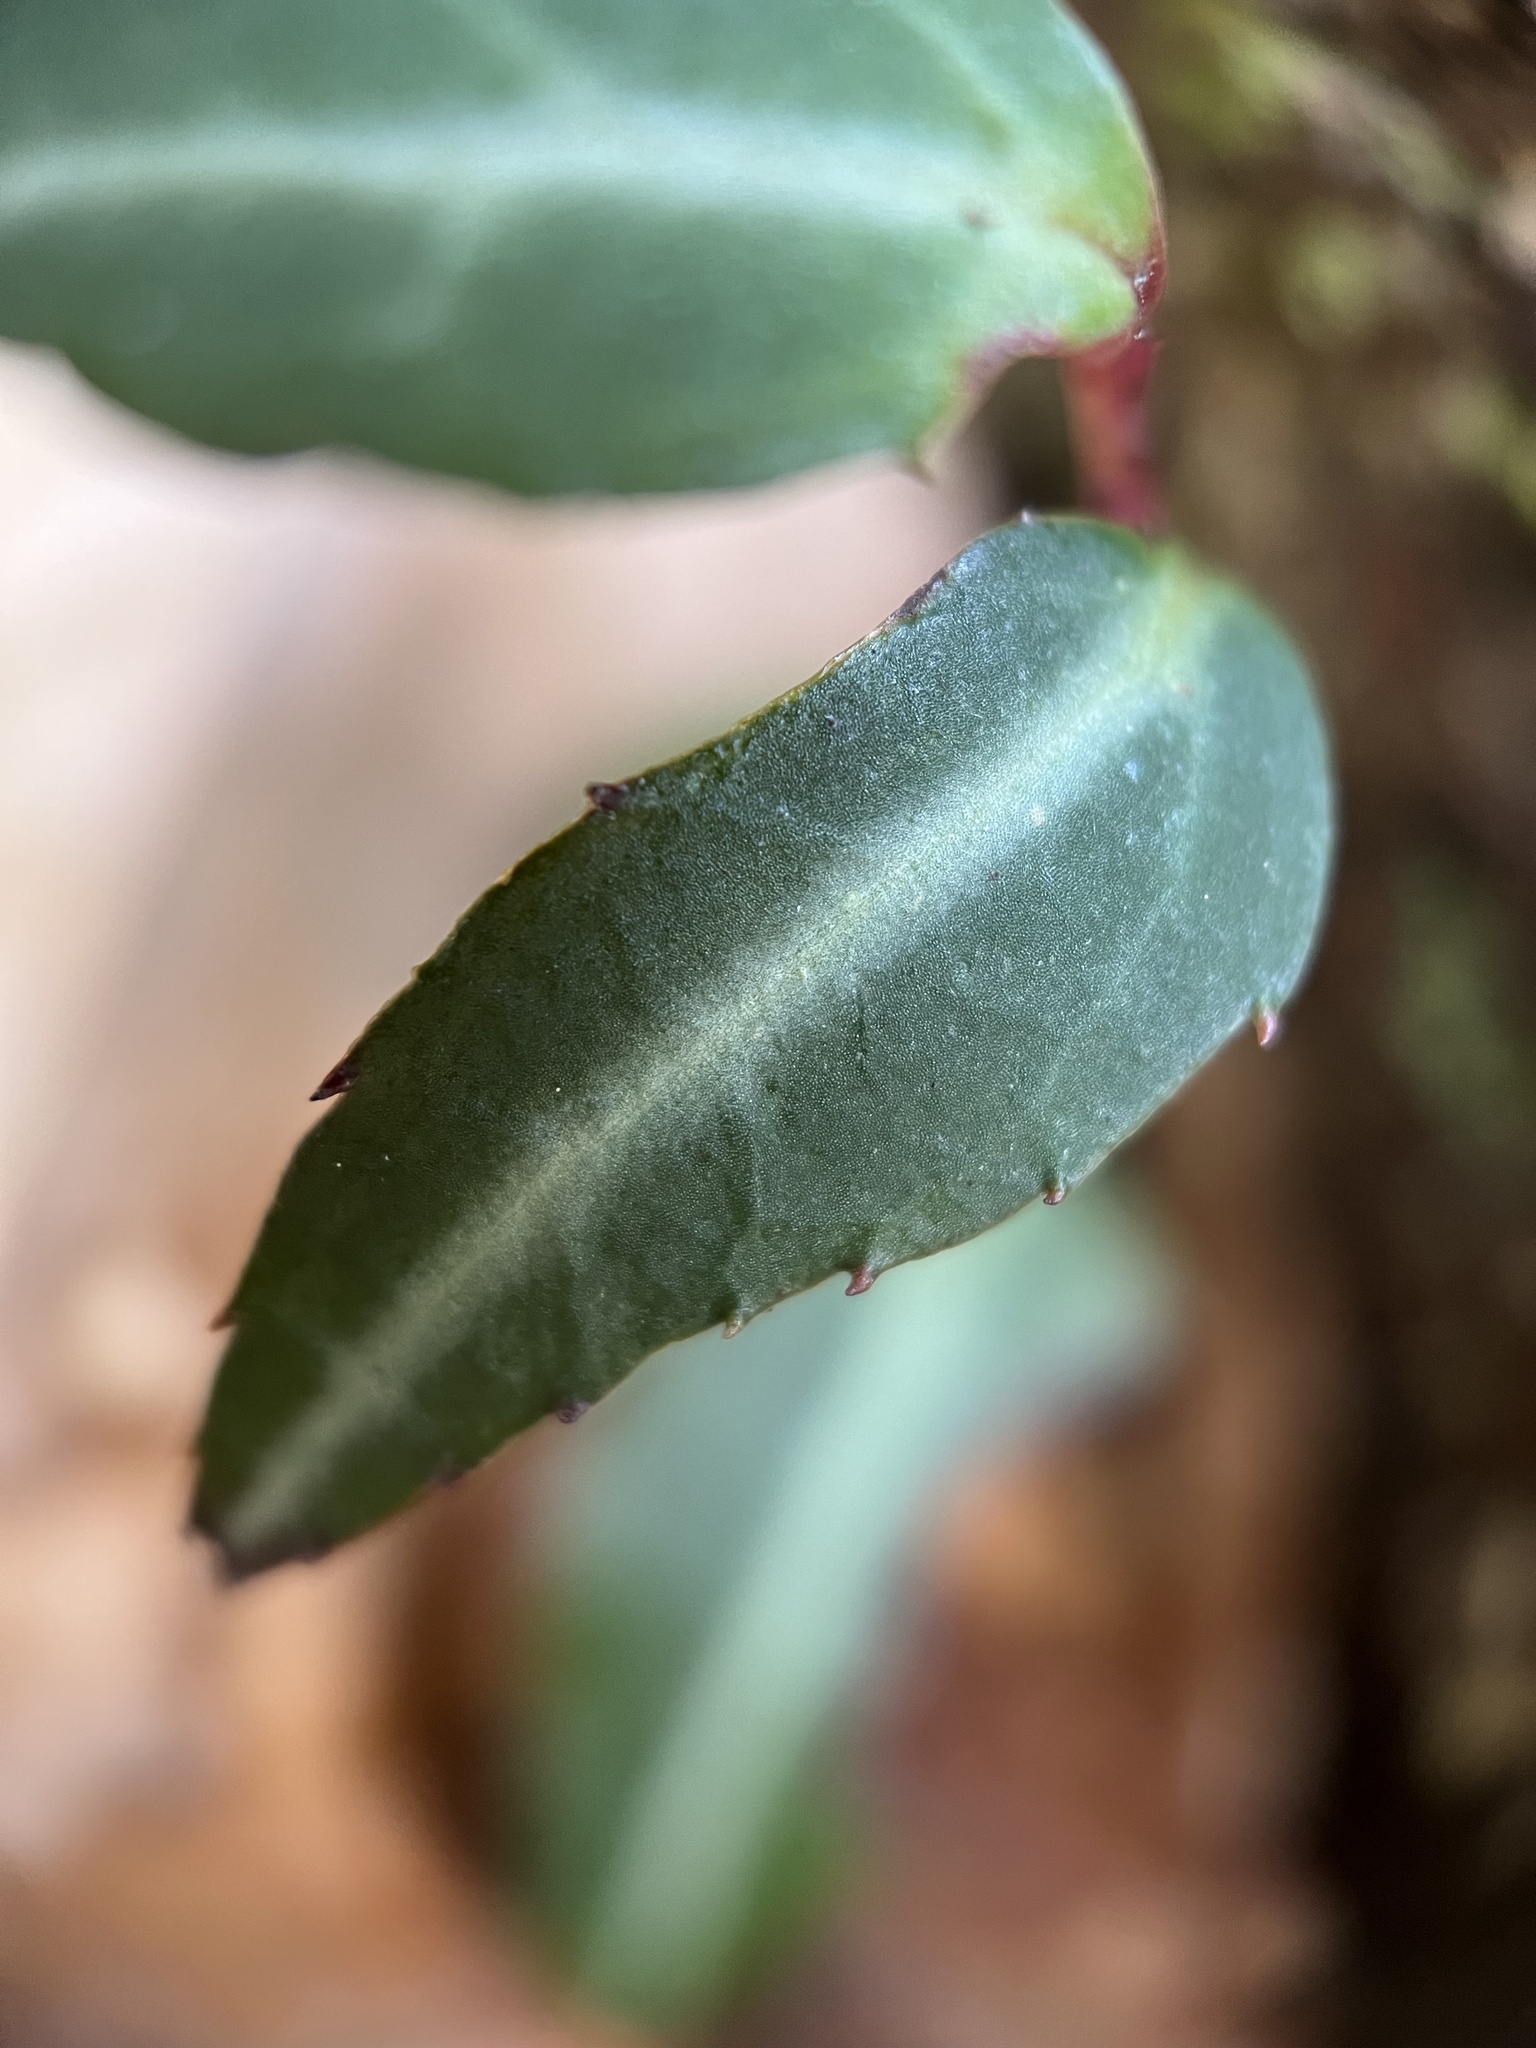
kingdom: Plantae
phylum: Tracheophyta
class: Magnoliopsida
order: Ericales
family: Ericaceae
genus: Chimaphila
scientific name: Chimaphila maculata
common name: Spotted pipsissewa
